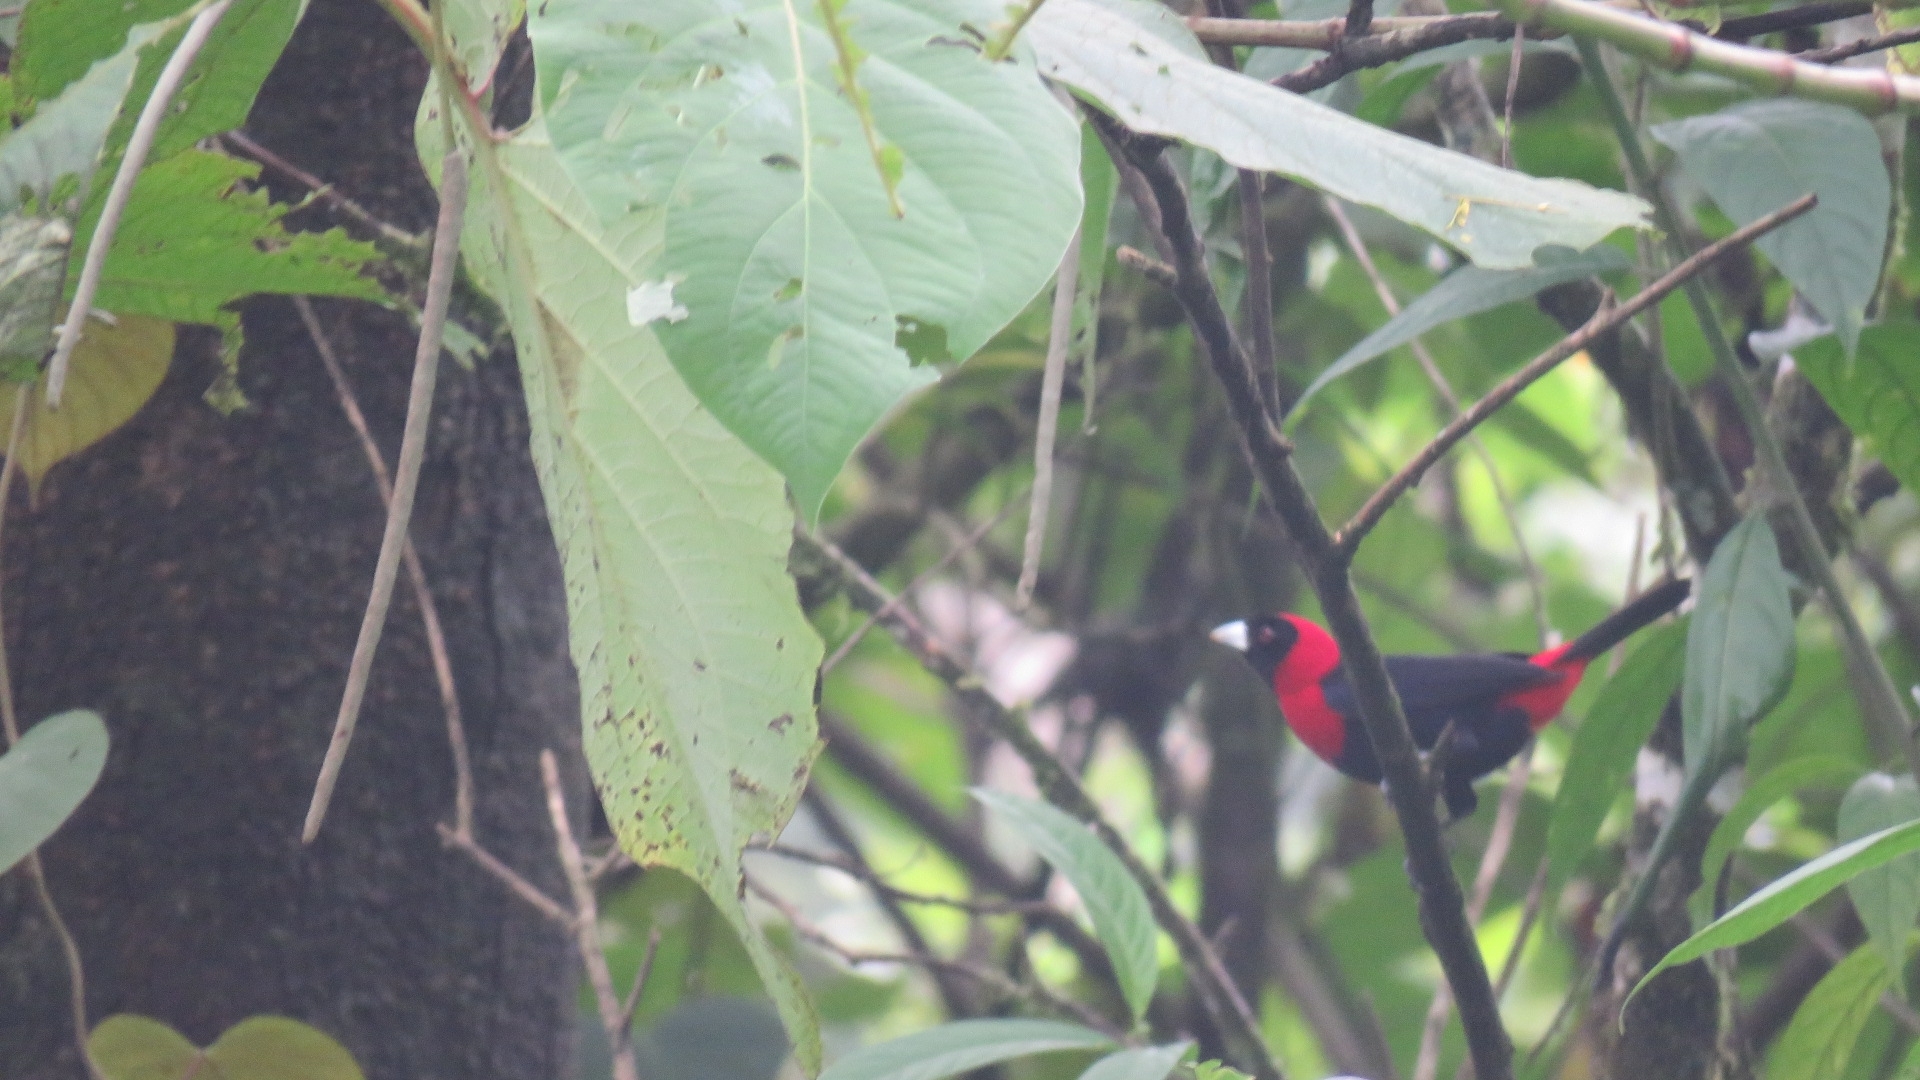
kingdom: Animalia
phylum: Chordata
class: Aves
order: Passeriformes
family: Thraupidae
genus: Ramphocelus
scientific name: Ramphocelus sanguinolentus
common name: Crimson-collared tanager
